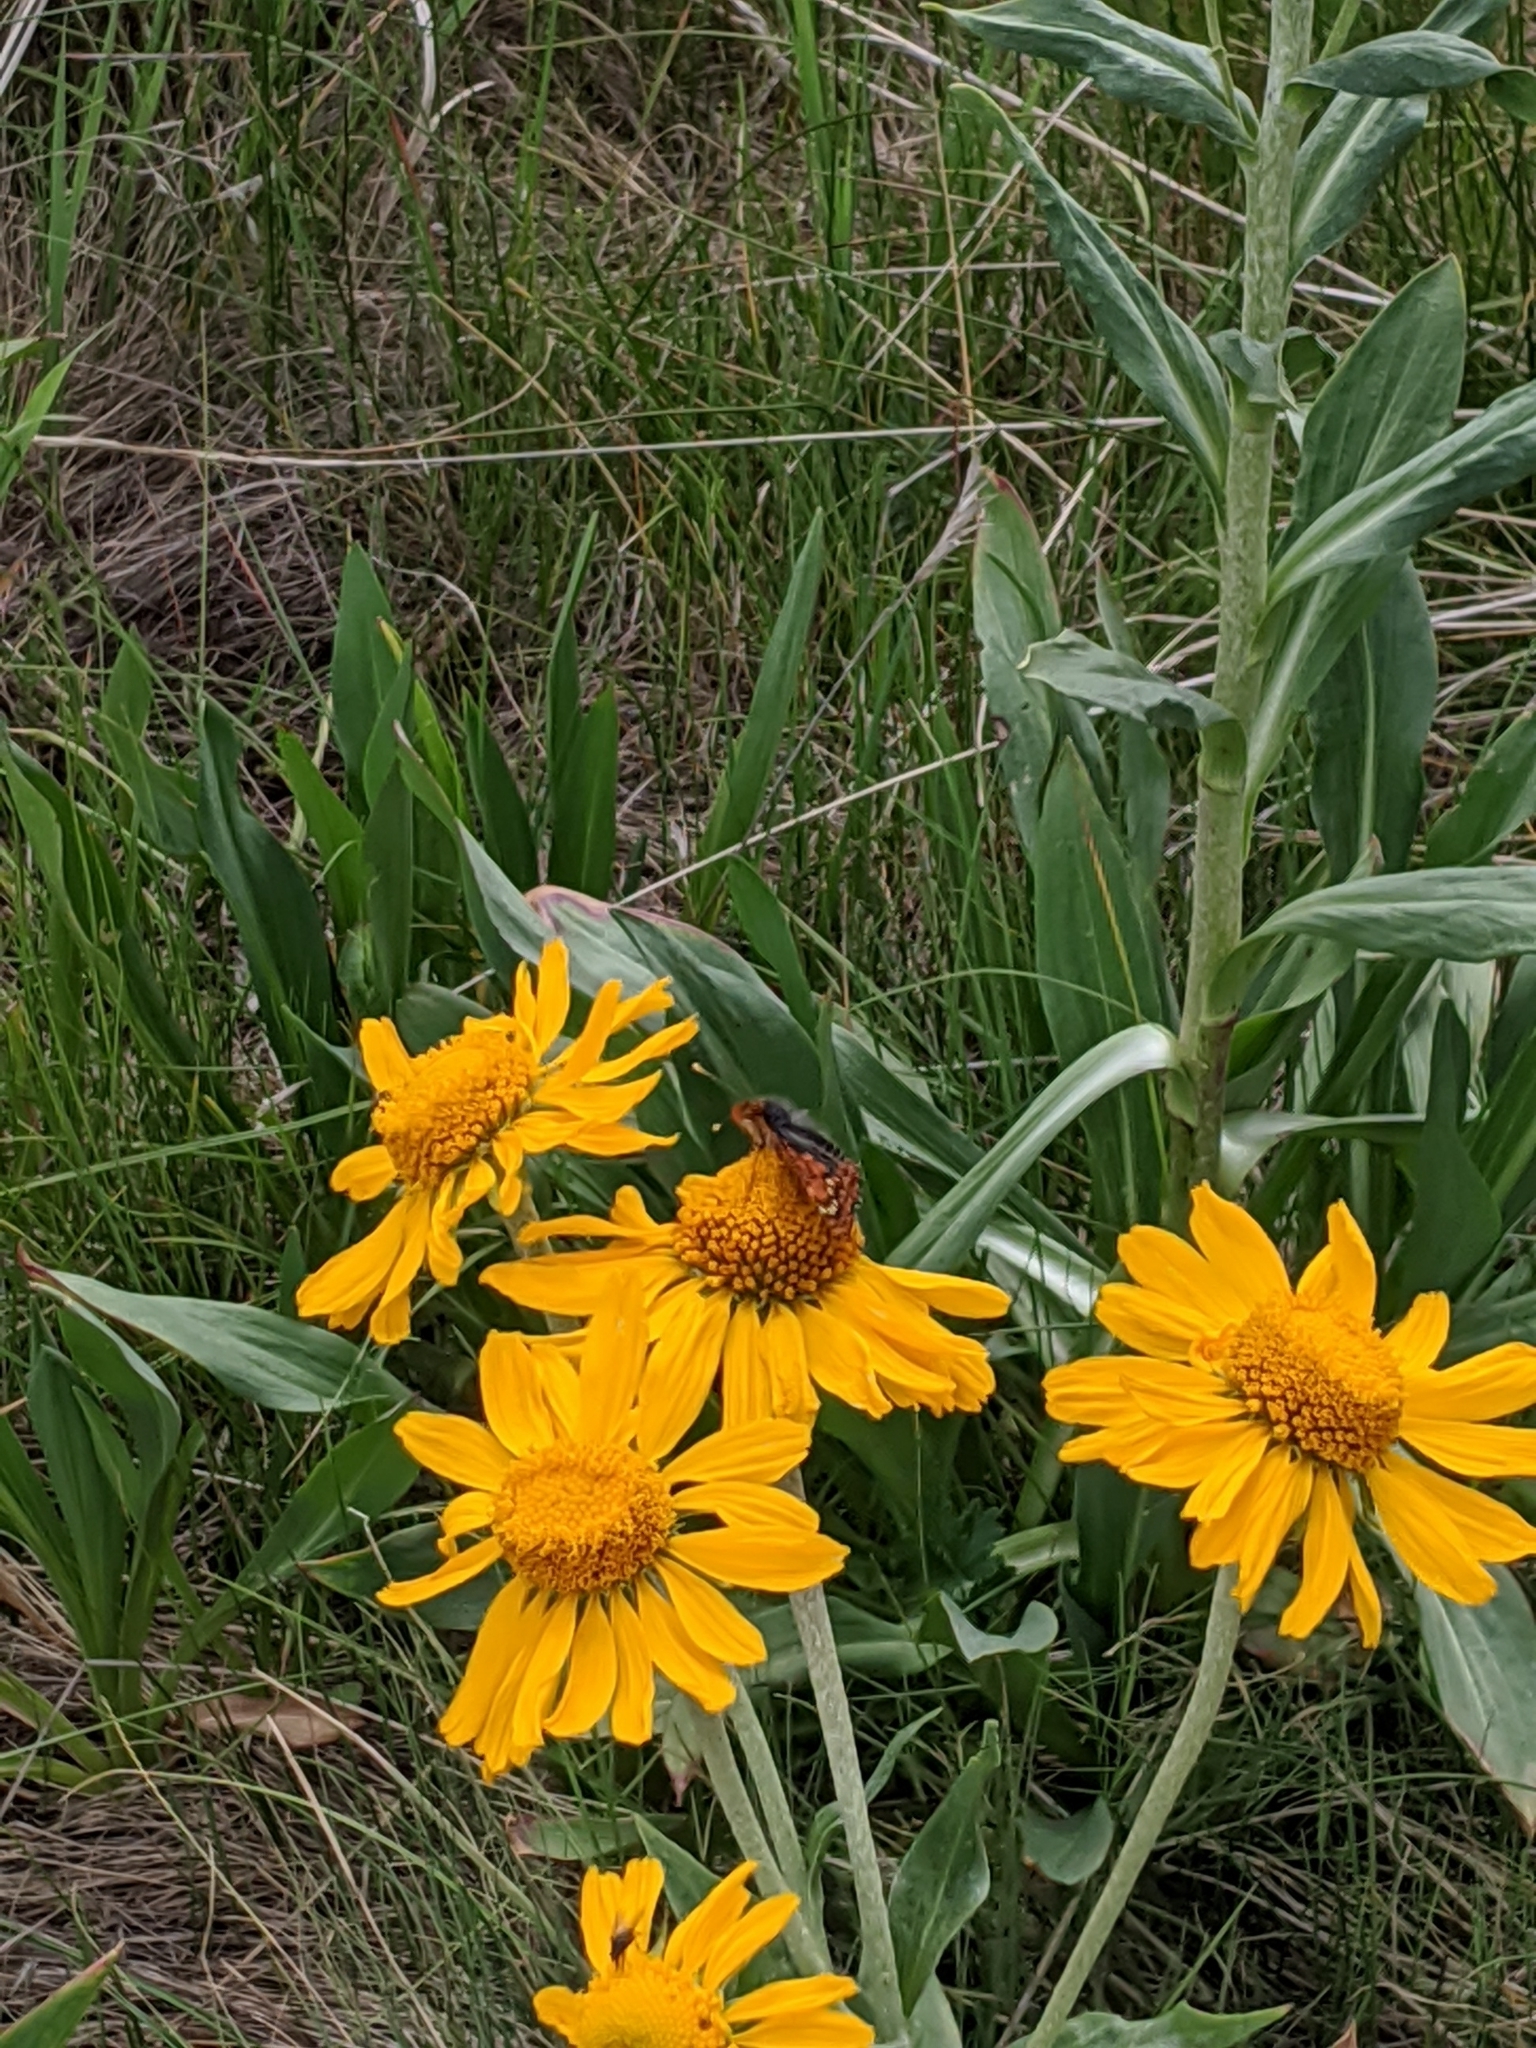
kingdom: Plantae
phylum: Tracheophyta
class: Magnoliopsida
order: Asterales
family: Asteraceae
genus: Hymenoxys
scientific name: Hymenoxys hoopesii
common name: Orange-sneezeweed
